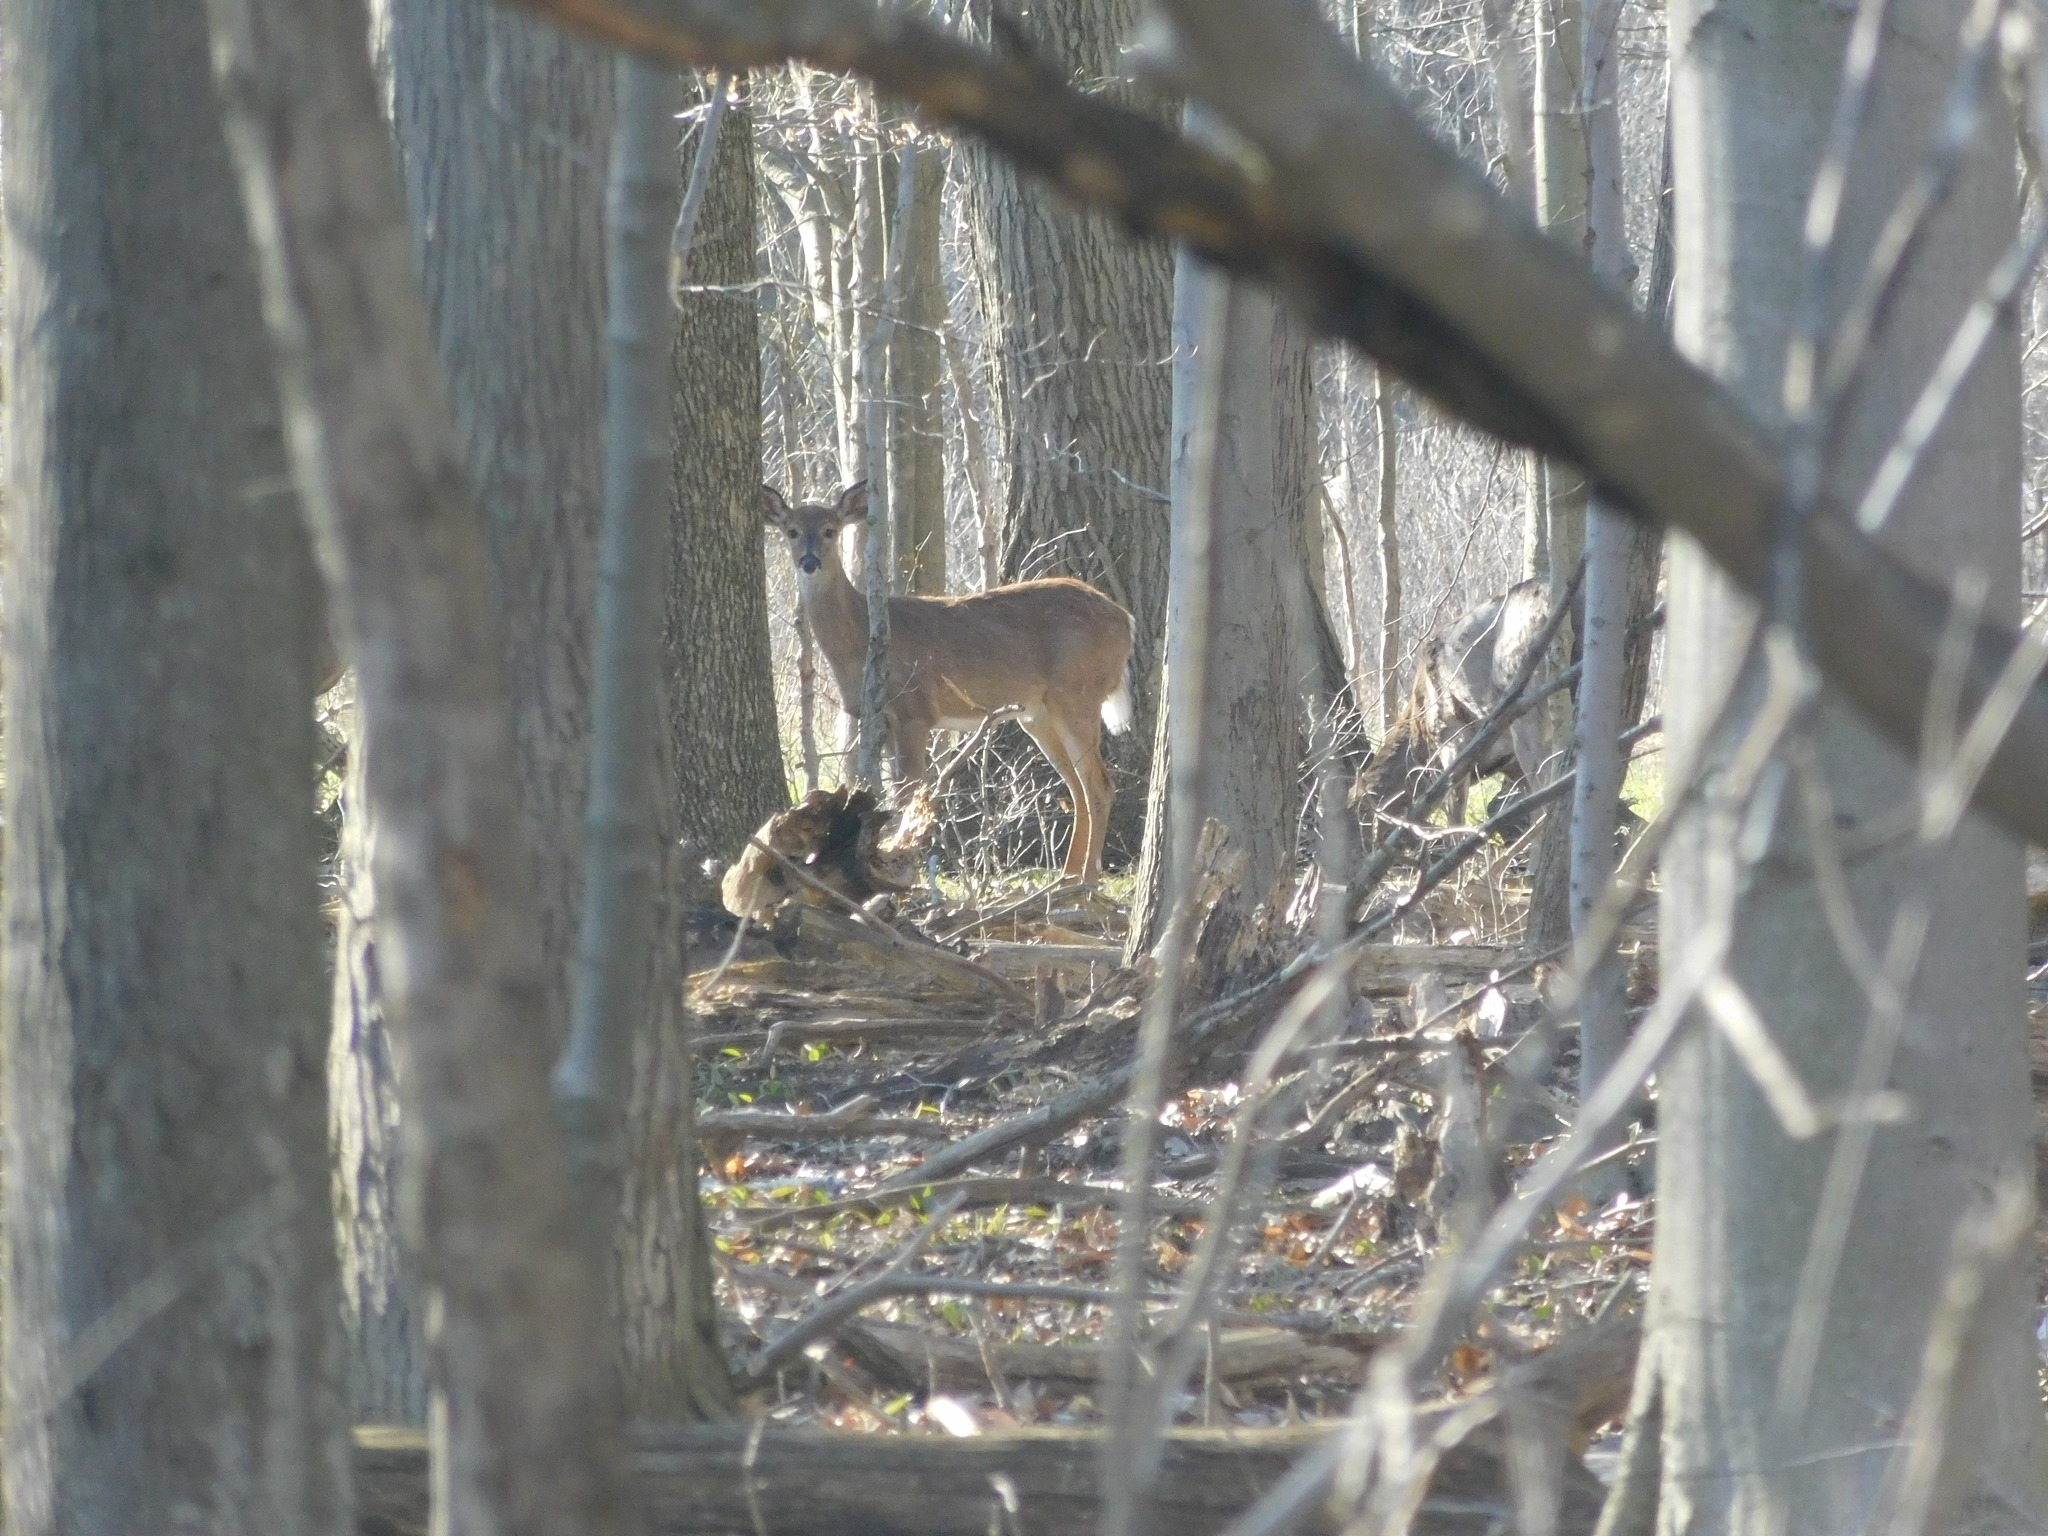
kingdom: Animalia
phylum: Chordata
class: Mammalia
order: Artiodactyla
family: Cervidae
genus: Odocoileus
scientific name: Odocoileus virginianus
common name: White-tailed deer
